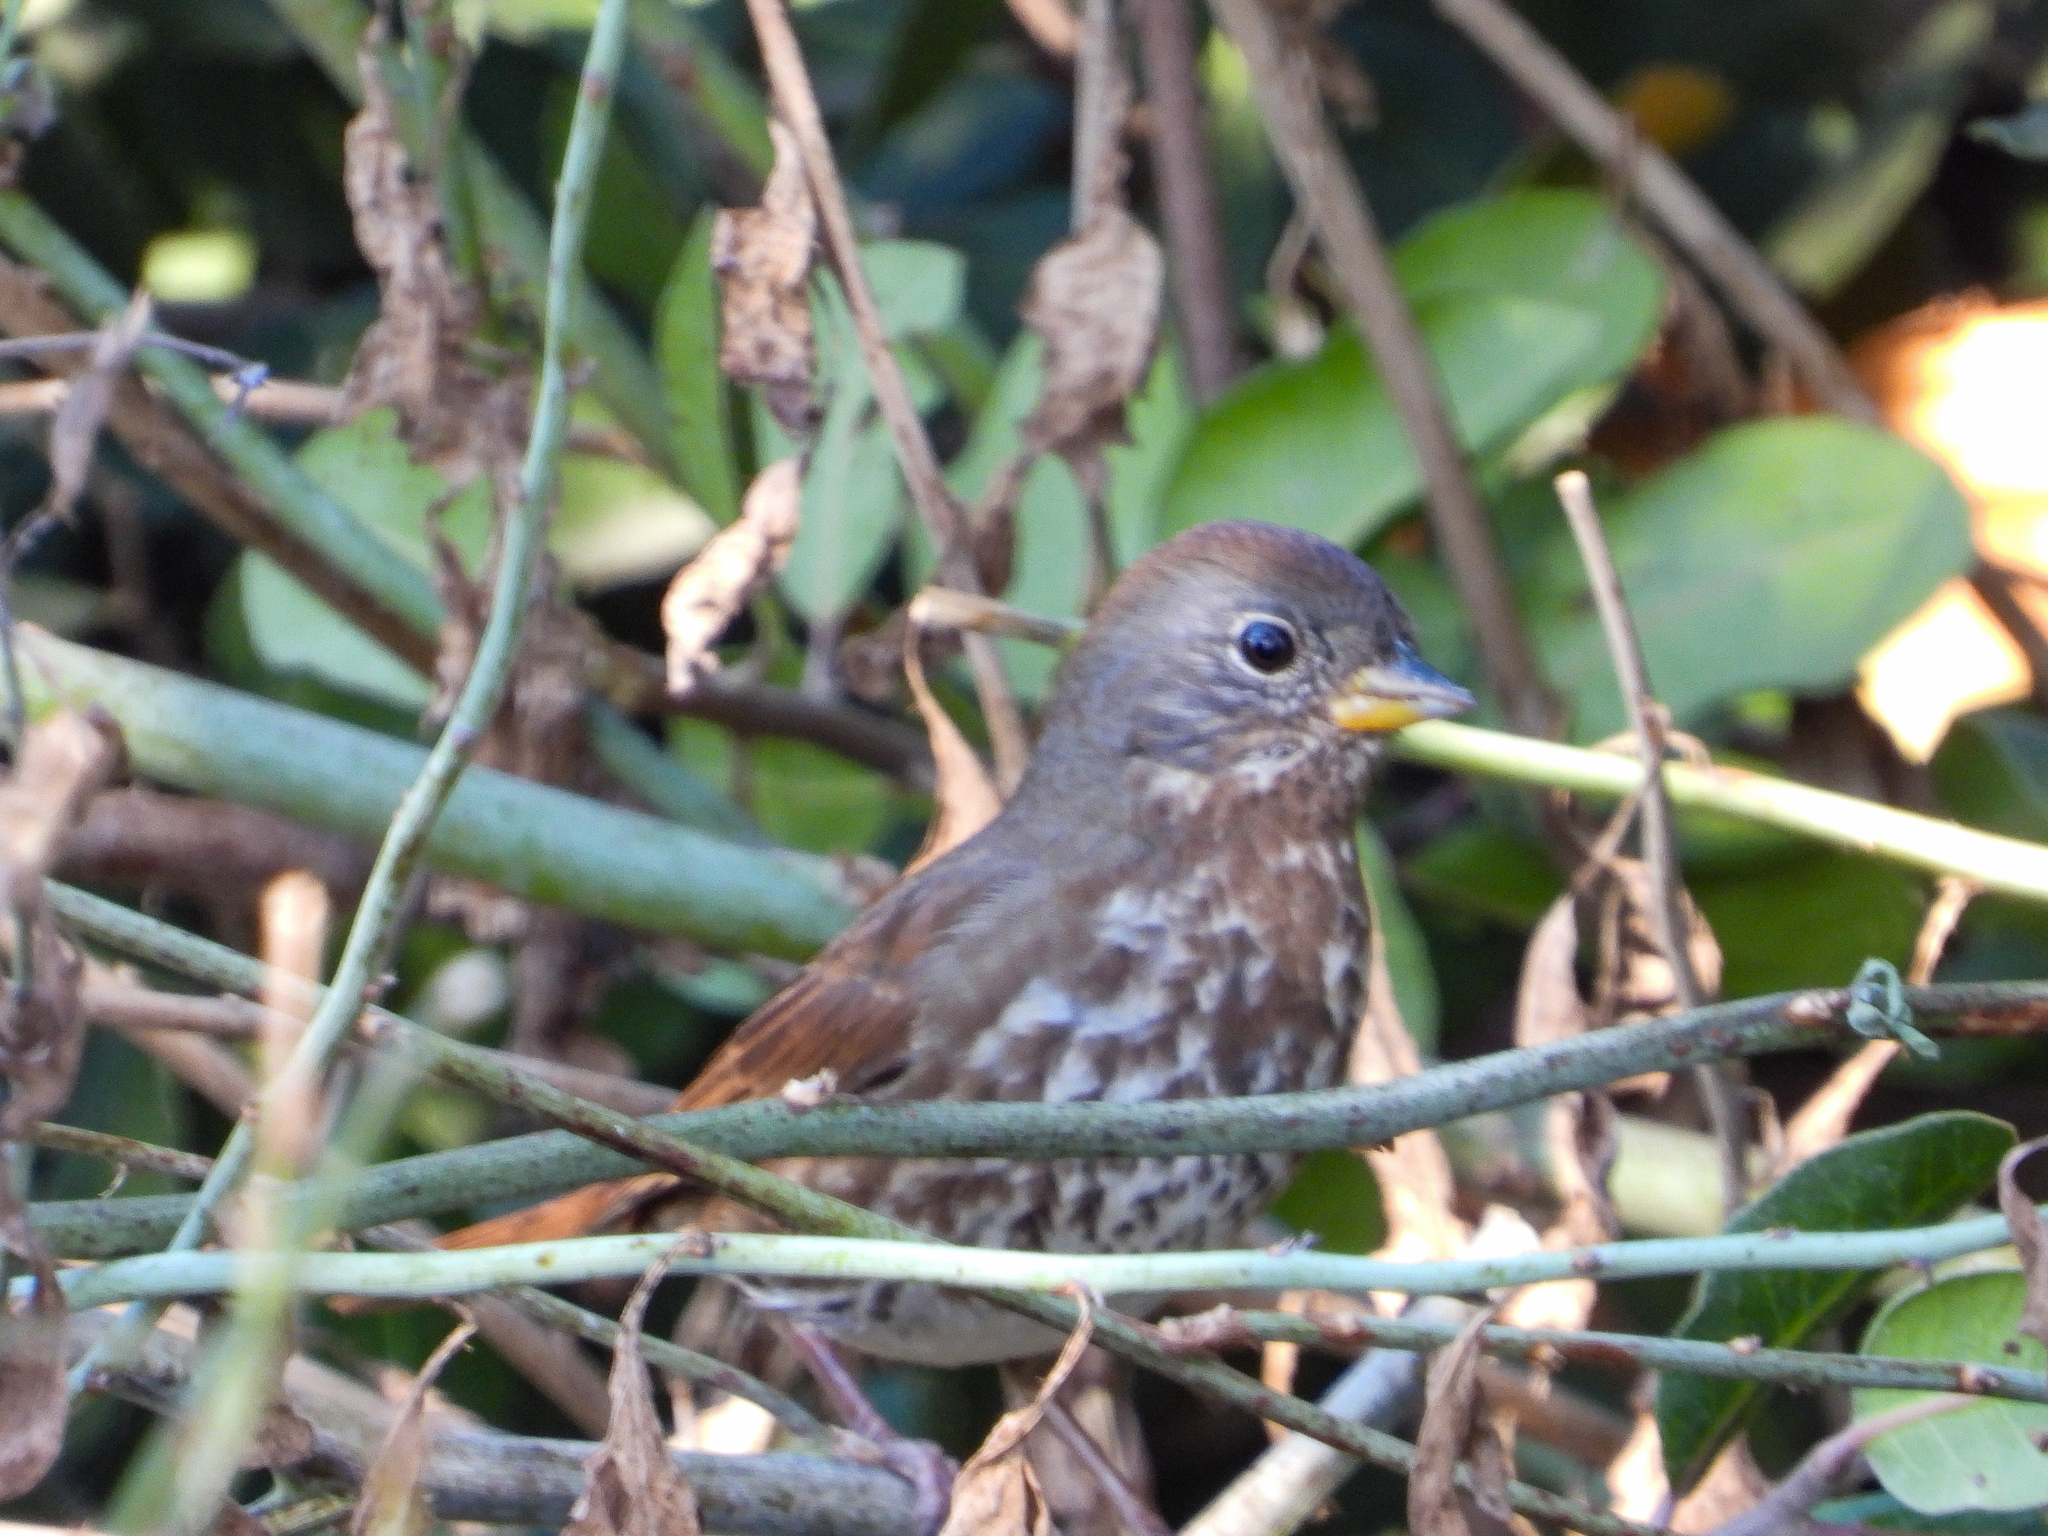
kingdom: Animalia
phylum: Chordata
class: Aves
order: Passeriformes
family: Passerellidae
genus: Passerella
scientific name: Passerella iliaca
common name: Fox sparrow
